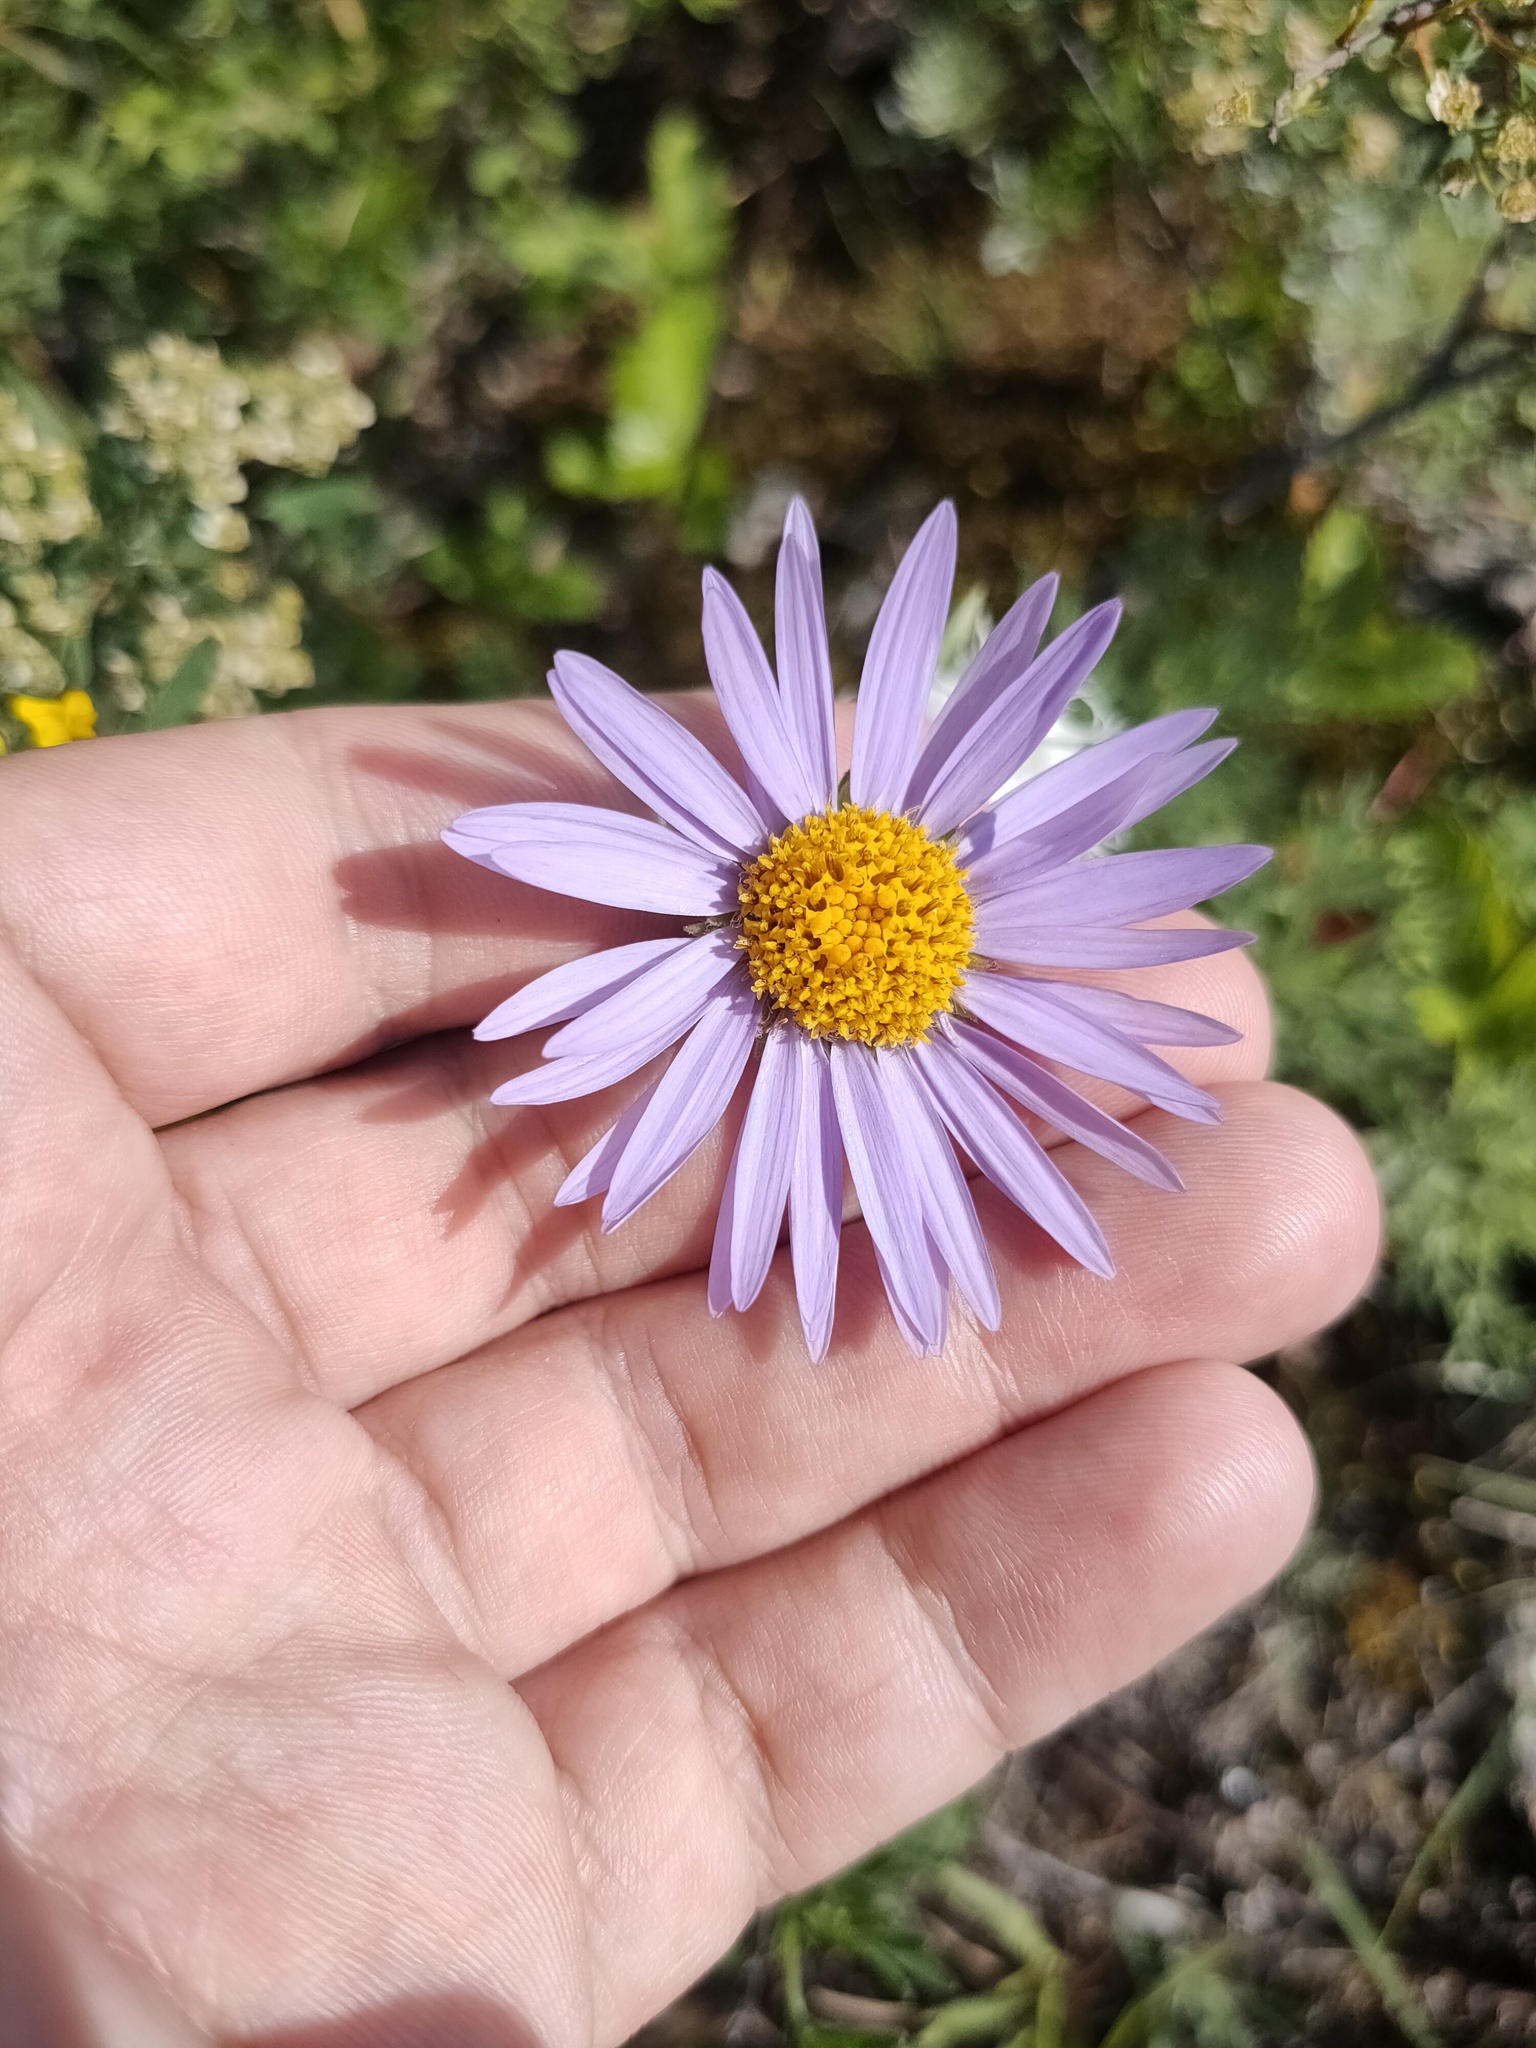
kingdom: Plantae
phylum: Tracheophyta
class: Magnoliopsida
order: Asterales
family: Asteraceae
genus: Aster
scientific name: Aster alpinus
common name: Alpine aster
